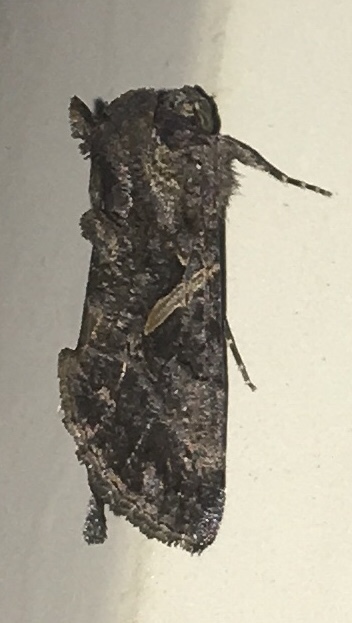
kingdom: Animalia
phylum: Arthropoda
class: Insecta
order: Lepidoptera
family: Noctuidae
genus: Ctenoplusia
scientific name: Ctenoplusia oxygramma
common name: Sharp-stigma looper moth
